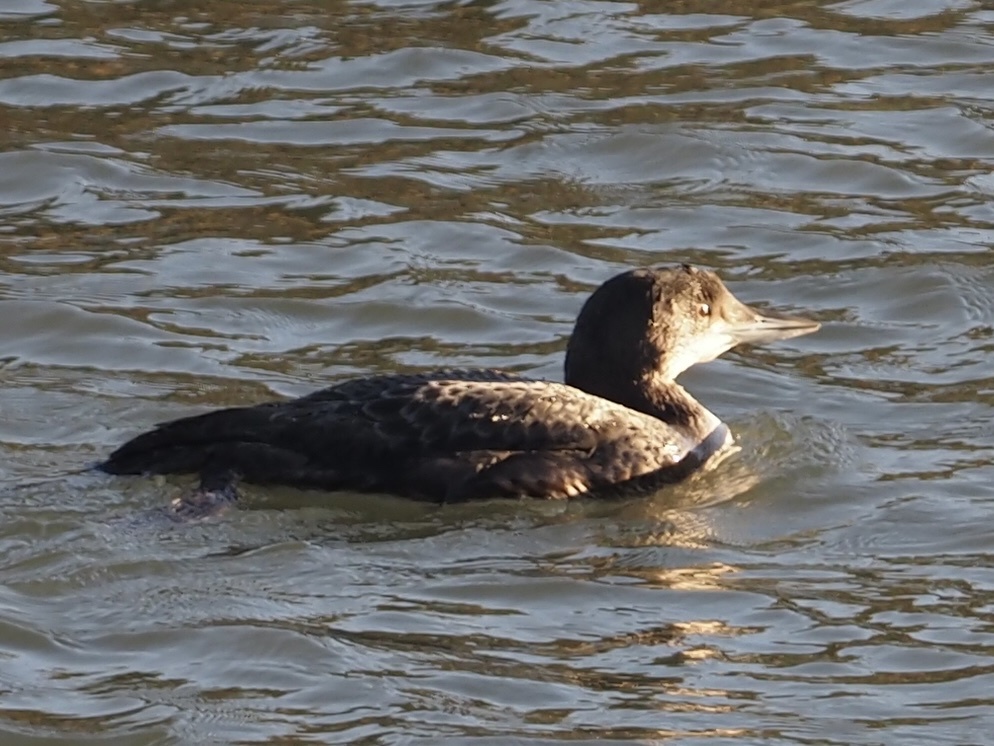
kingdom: Animalia
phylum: Chordata
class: Aves
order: Gaviiformes
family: Gaviidae
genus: Gavia
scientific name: Gavia immer
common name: Common loon
